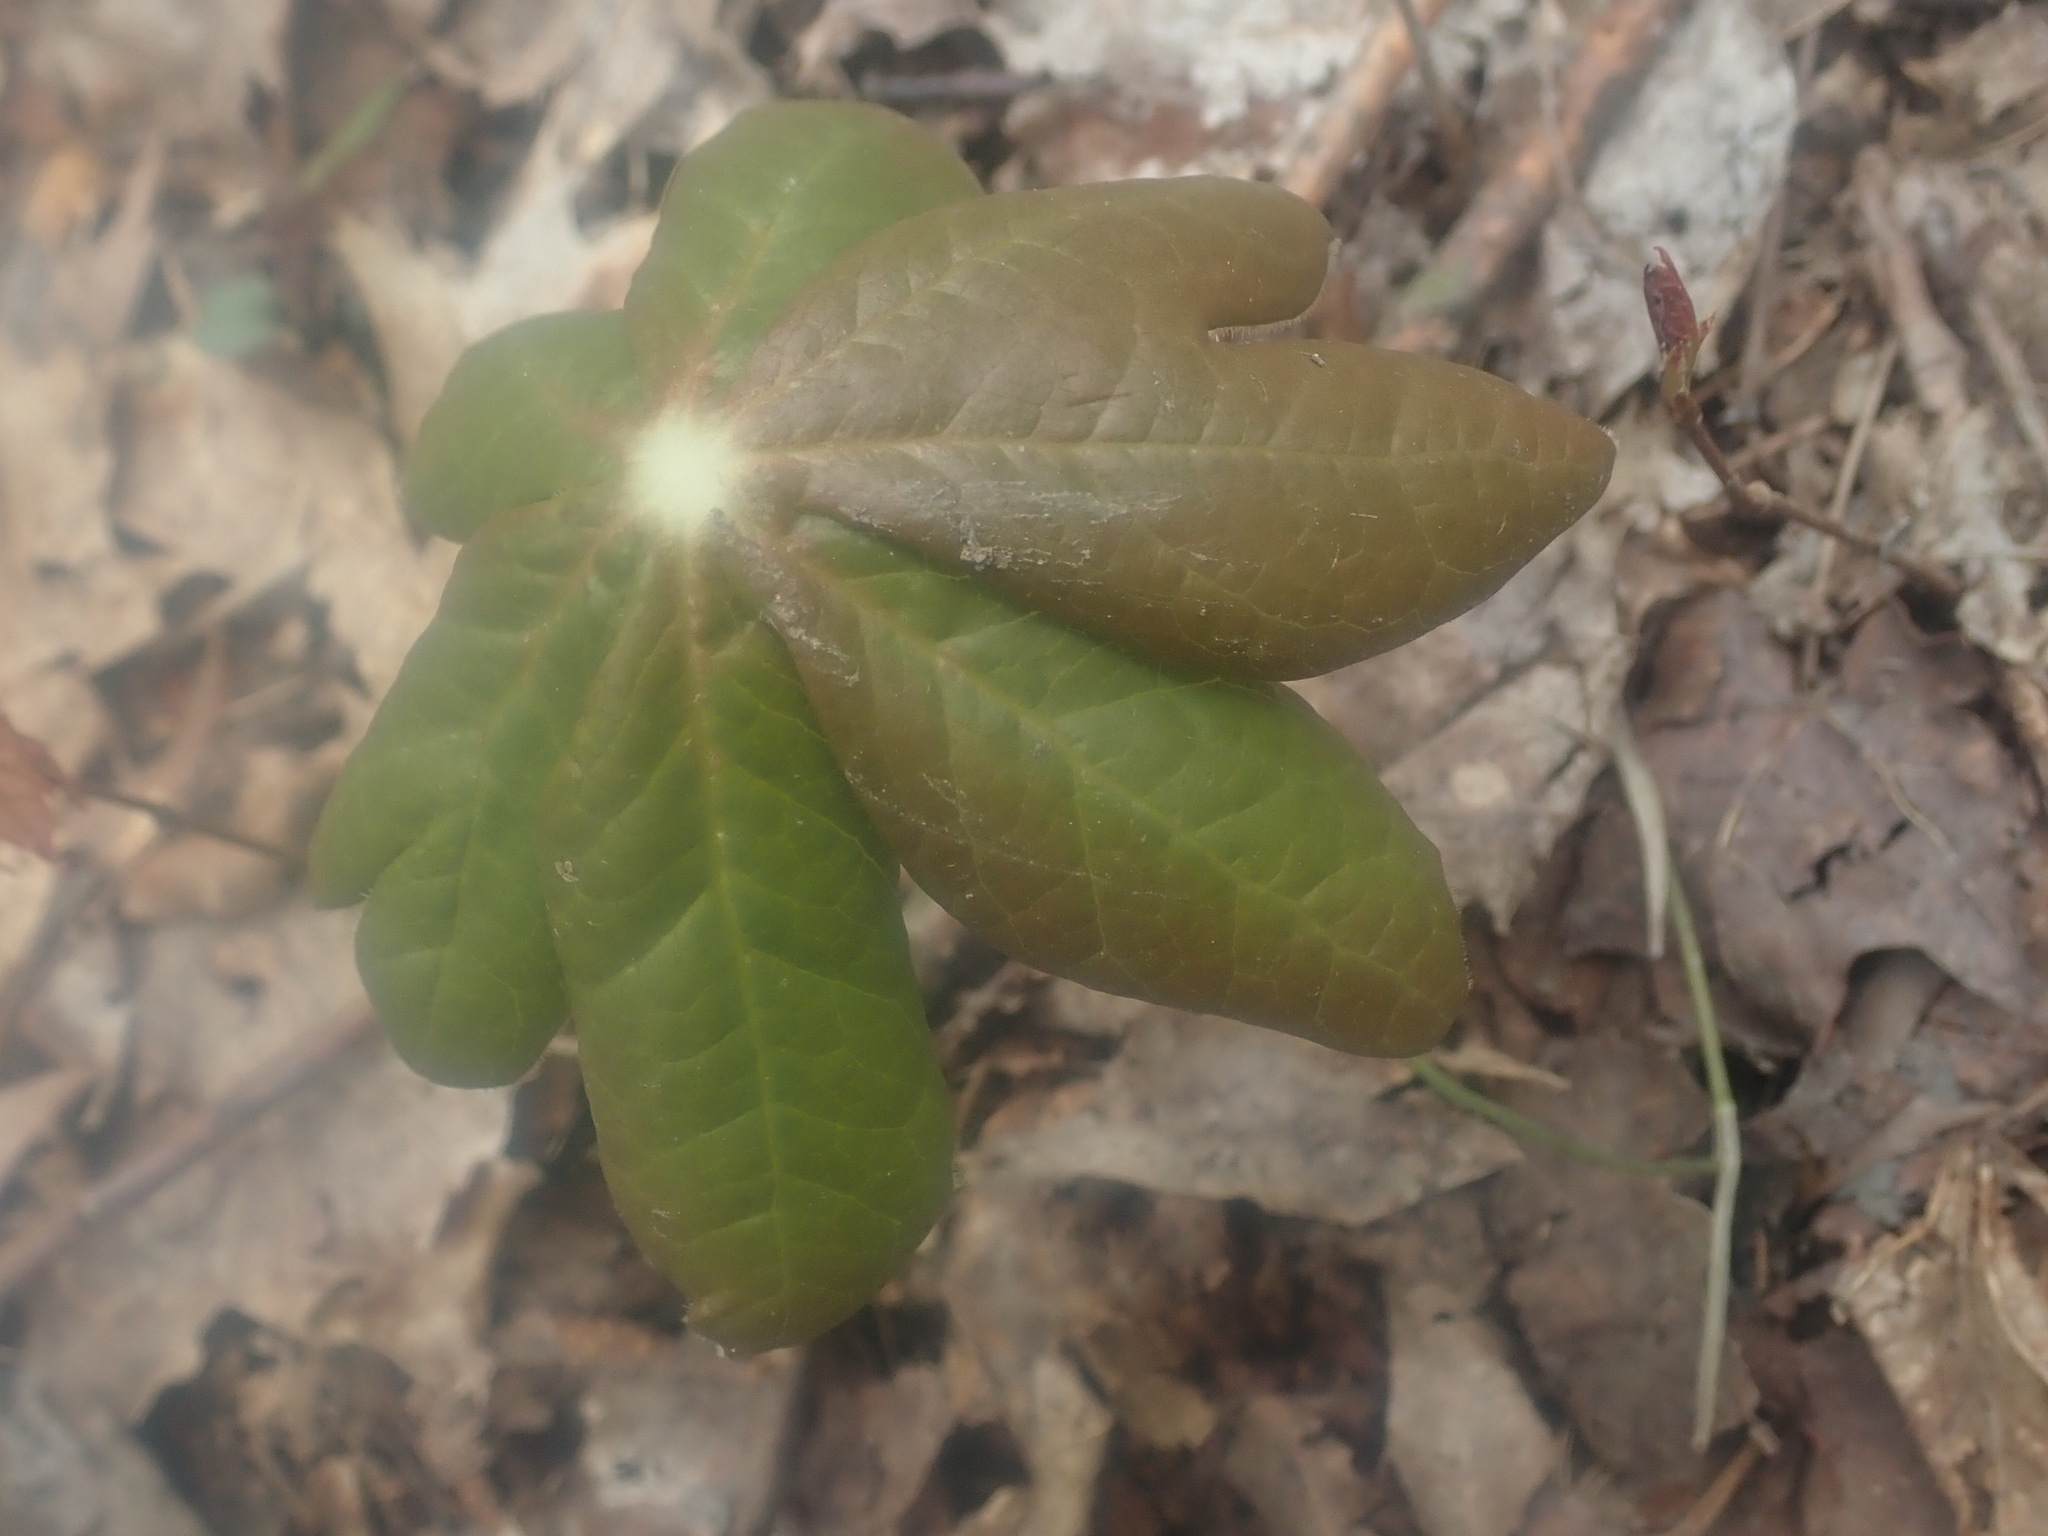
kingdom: Plantae
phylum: Tracheophyta
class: Magnoliopsida
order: Ranunculales
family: Berberidaceae
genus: Podophyllum
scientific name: Podophyllum peltatum
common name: Wild mandrake
